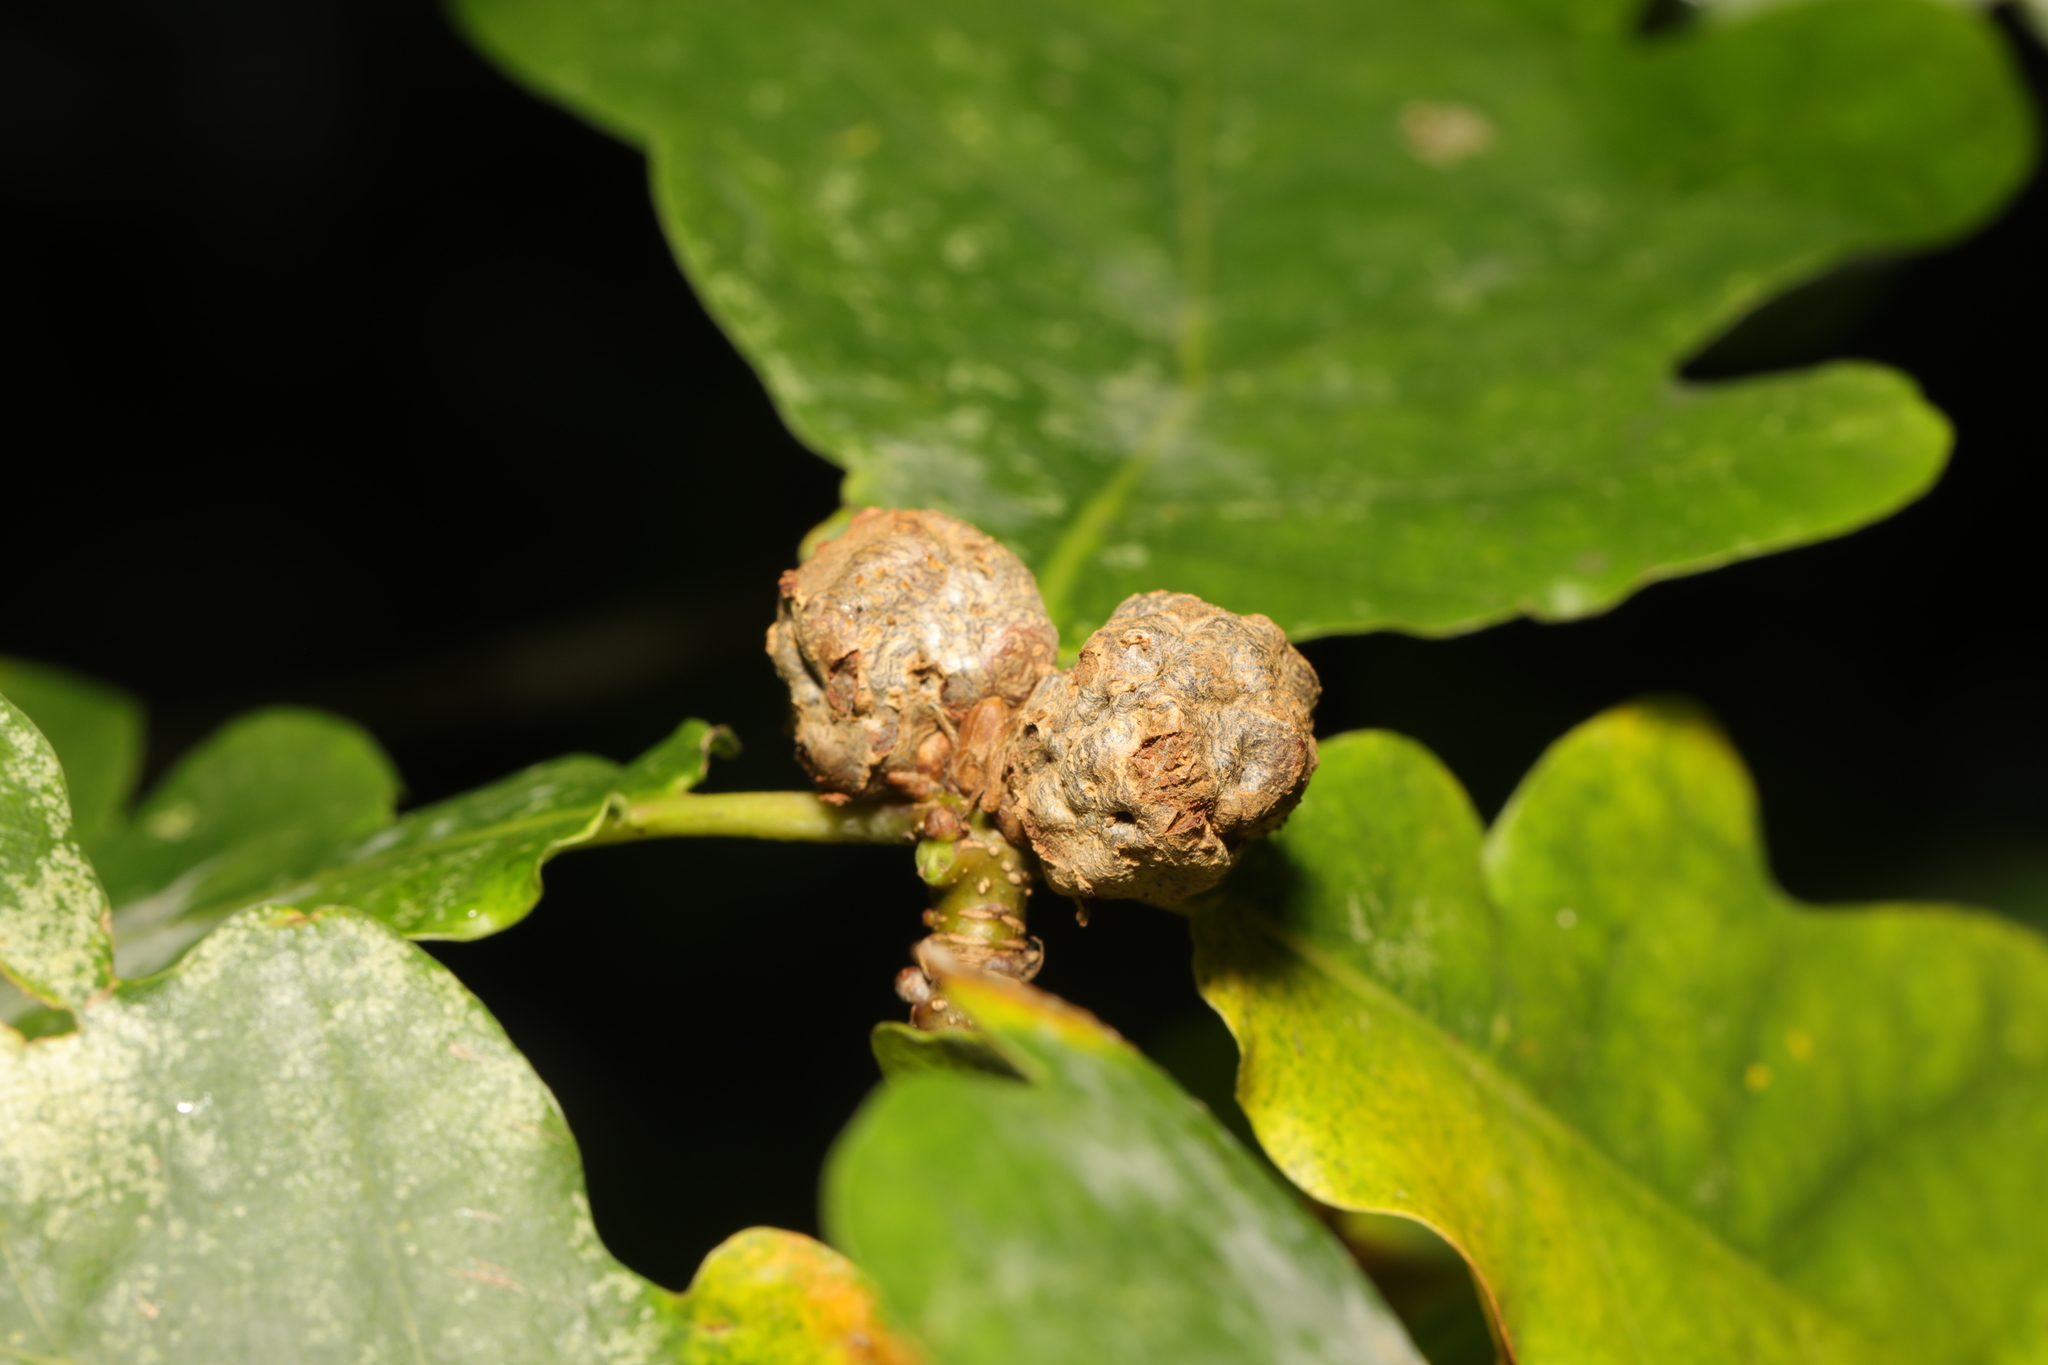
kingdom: Animalia
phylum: Arthropoda
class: Insecta
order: Hymenoptera
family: Cynipidae
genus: Andricus
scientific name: Andricus lignicolus
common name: Cola-nut gall
